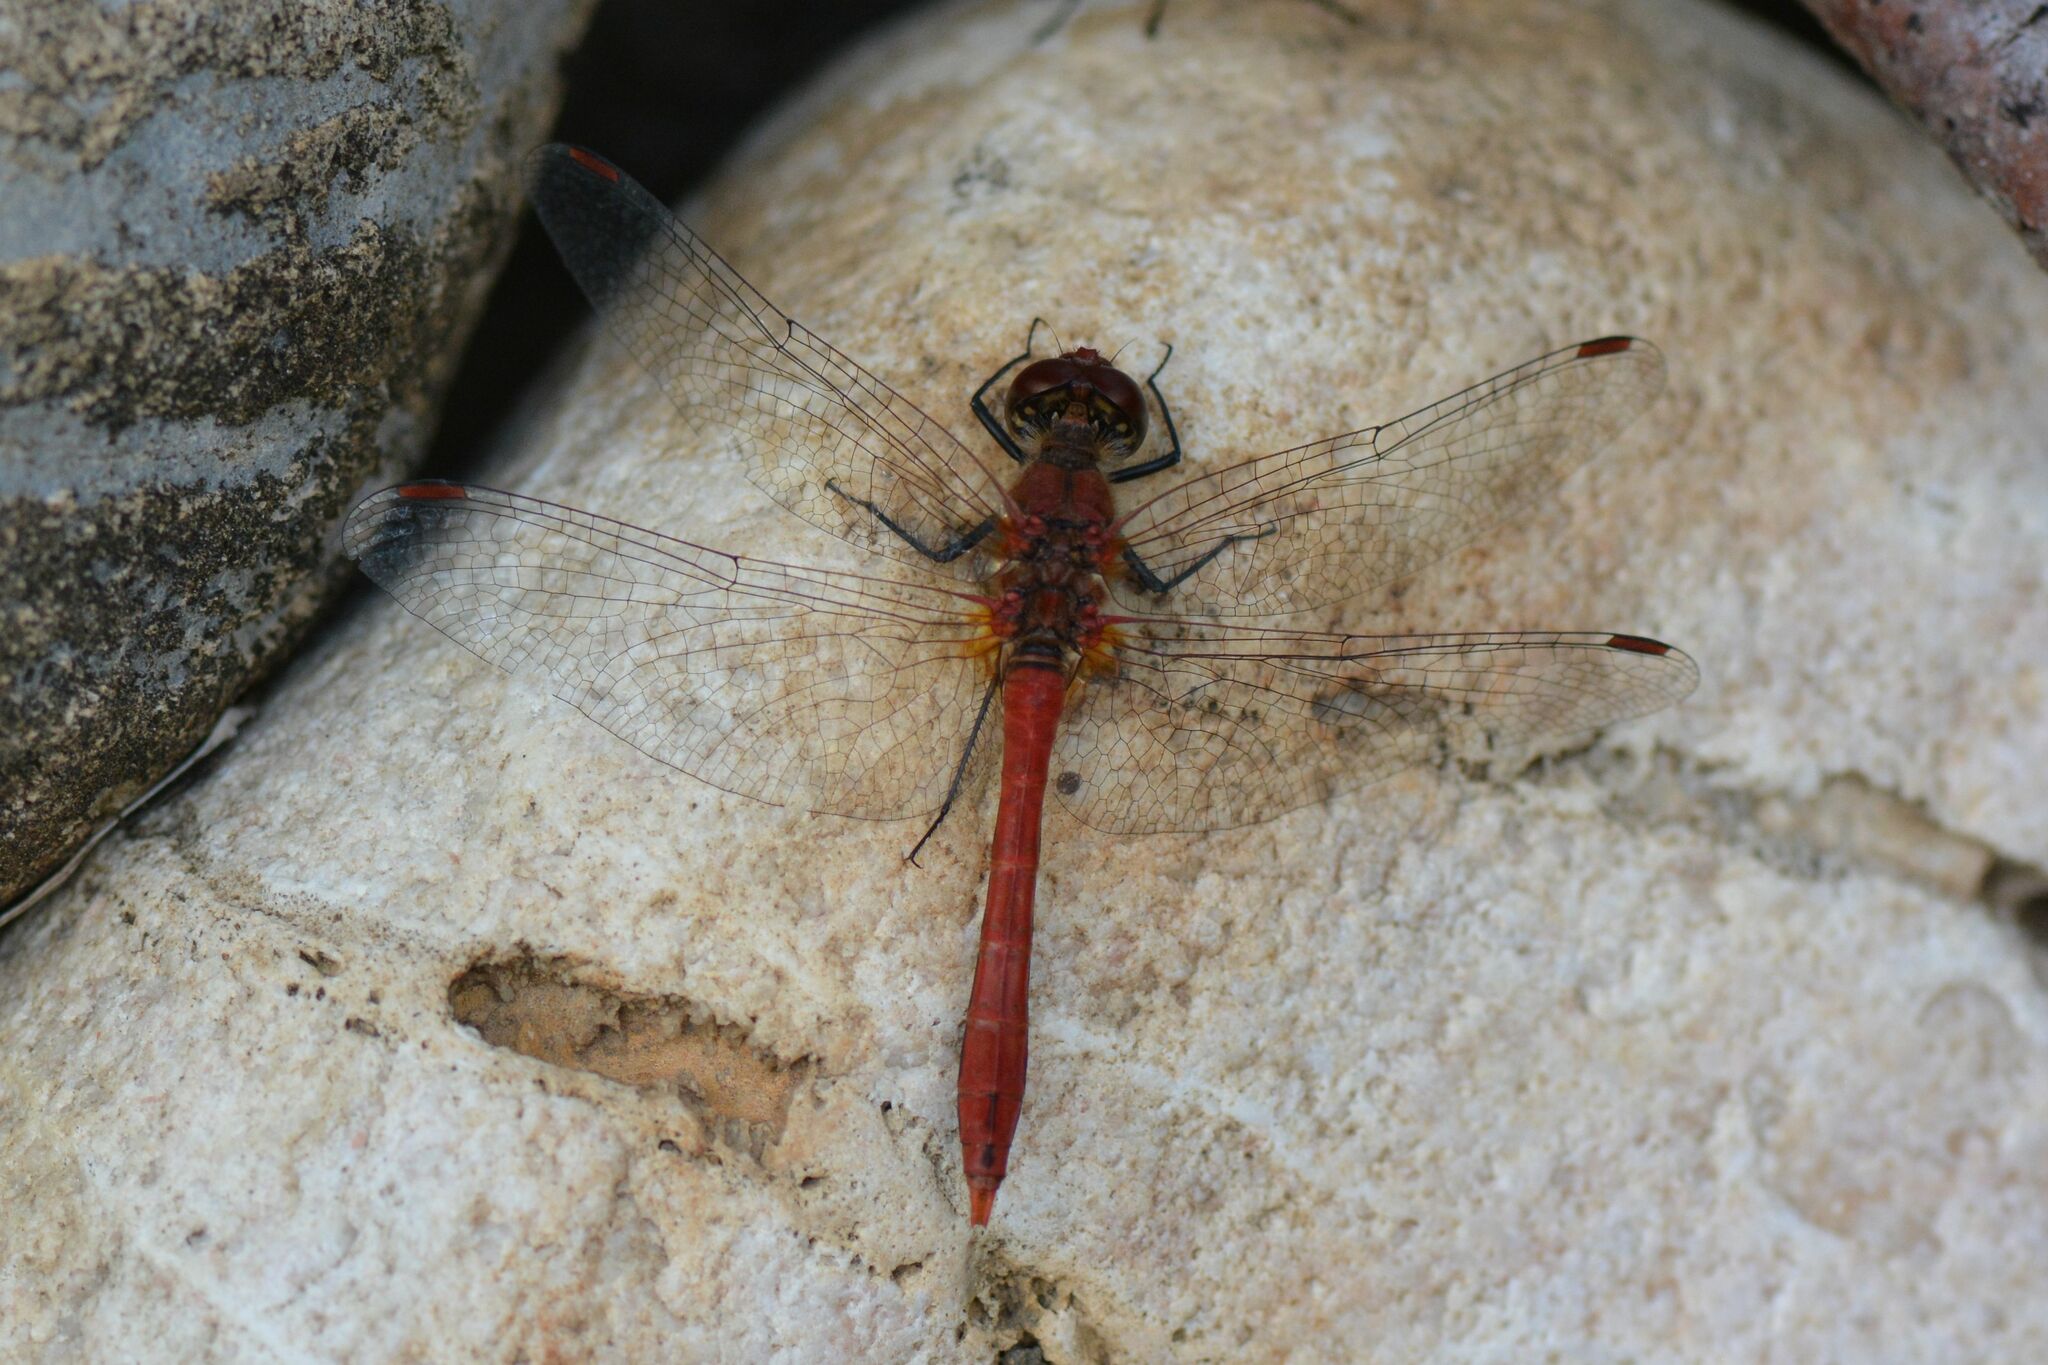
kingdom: Animalia
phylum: Arthropoda
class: Insecta
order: Odonata
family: Libellulidae
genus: Sympetrum
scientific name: Sympetrum sanguineum
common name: Ruddy darter
